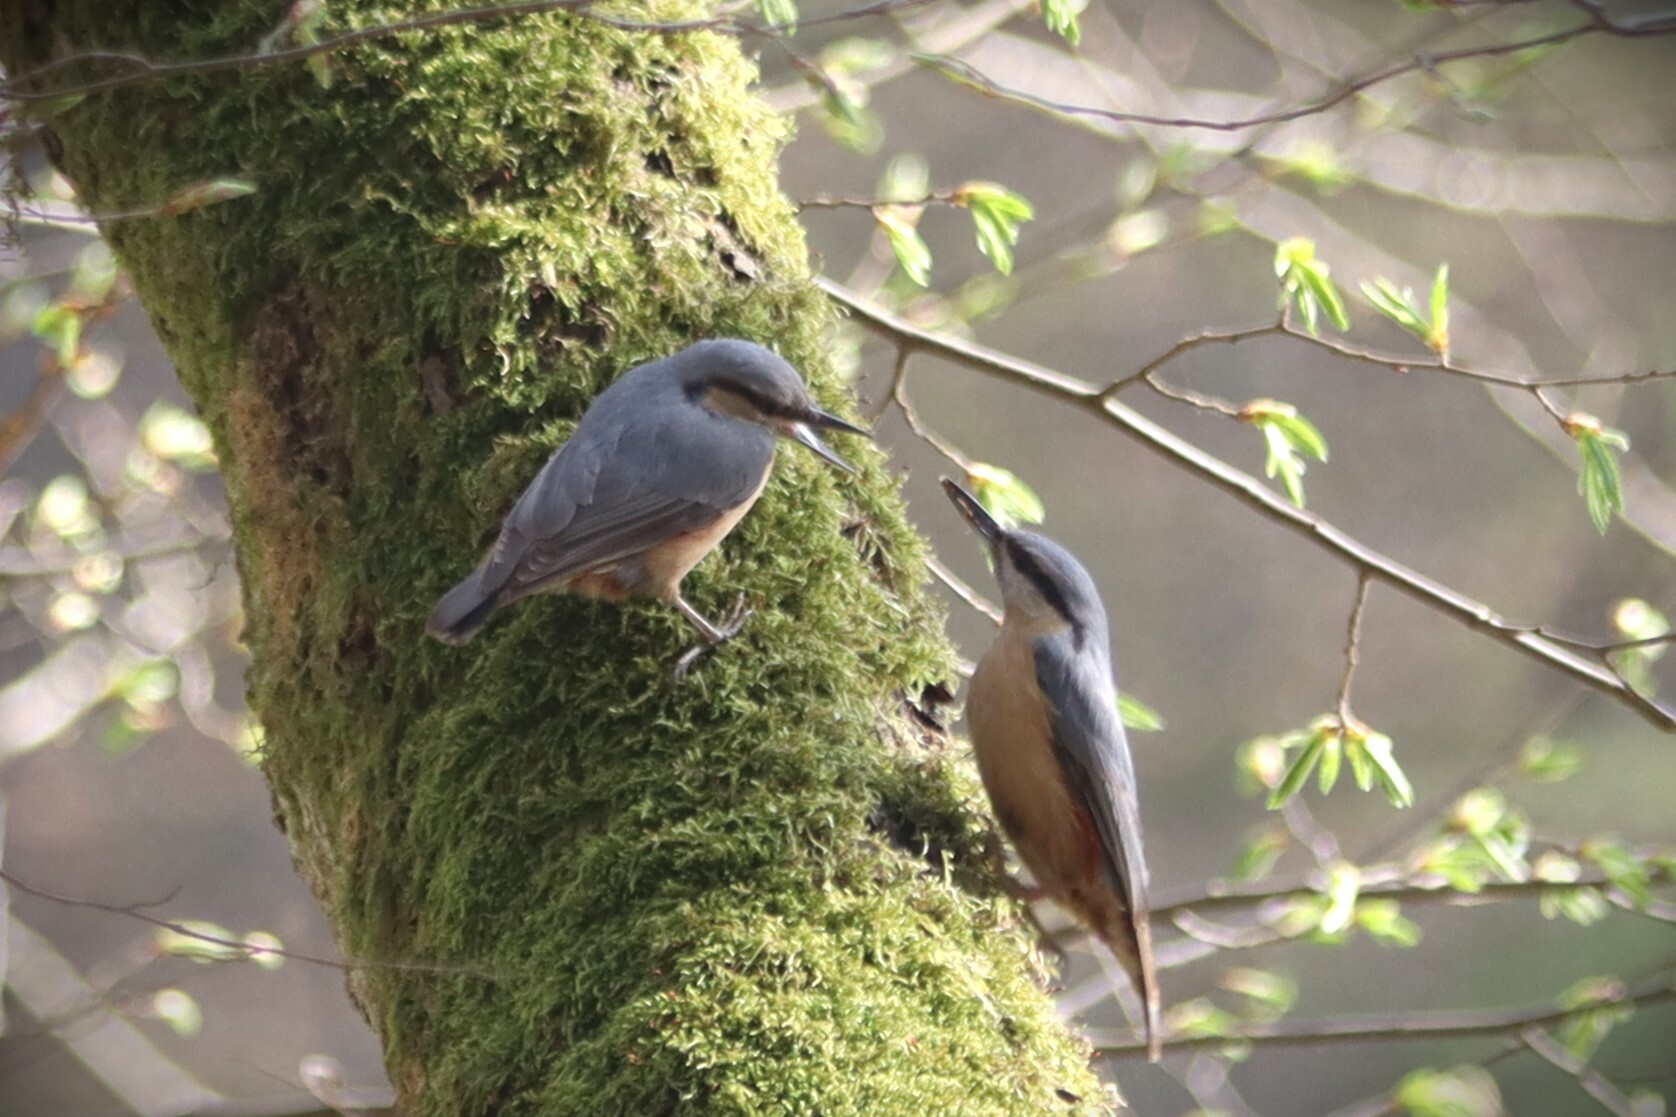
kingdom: Animalia
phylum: Chordata
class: Aves
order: Passeriformes
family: Sittidae
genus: Sitta
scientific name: Sitta europaea
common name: Eurasian nuthatch
